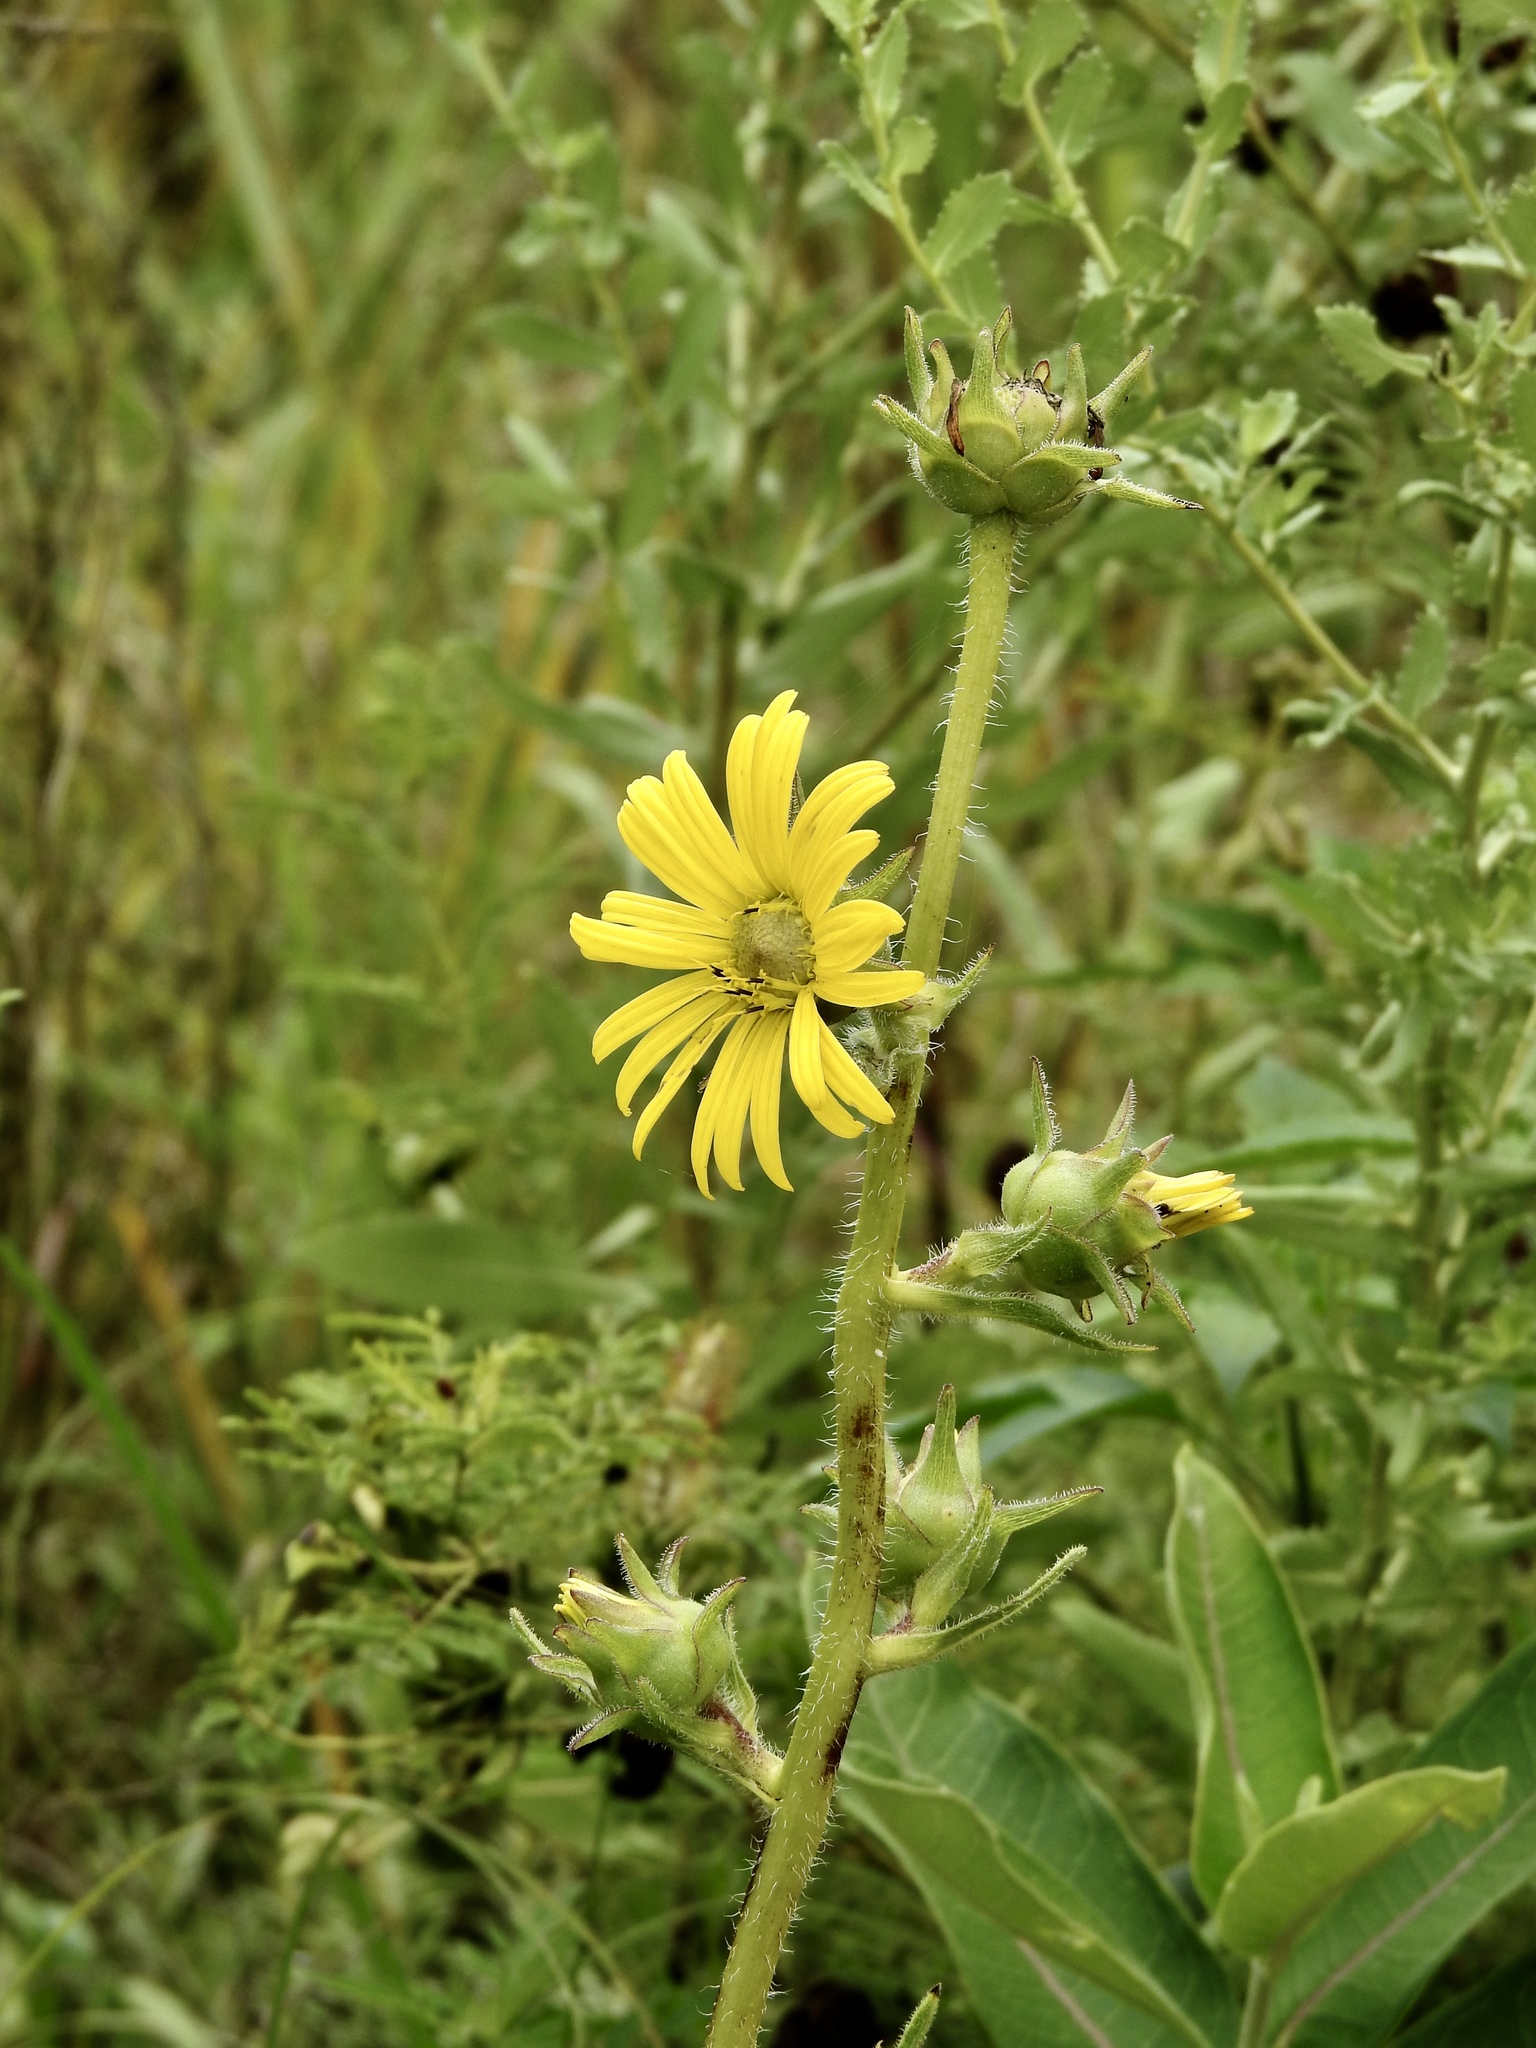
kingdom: Plantae
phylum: Tracheophyta
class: Magnoliopsida
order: Asterales
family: Asteraceae
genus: Silphium
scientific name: Silphium laciniatum
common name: Polarplant
